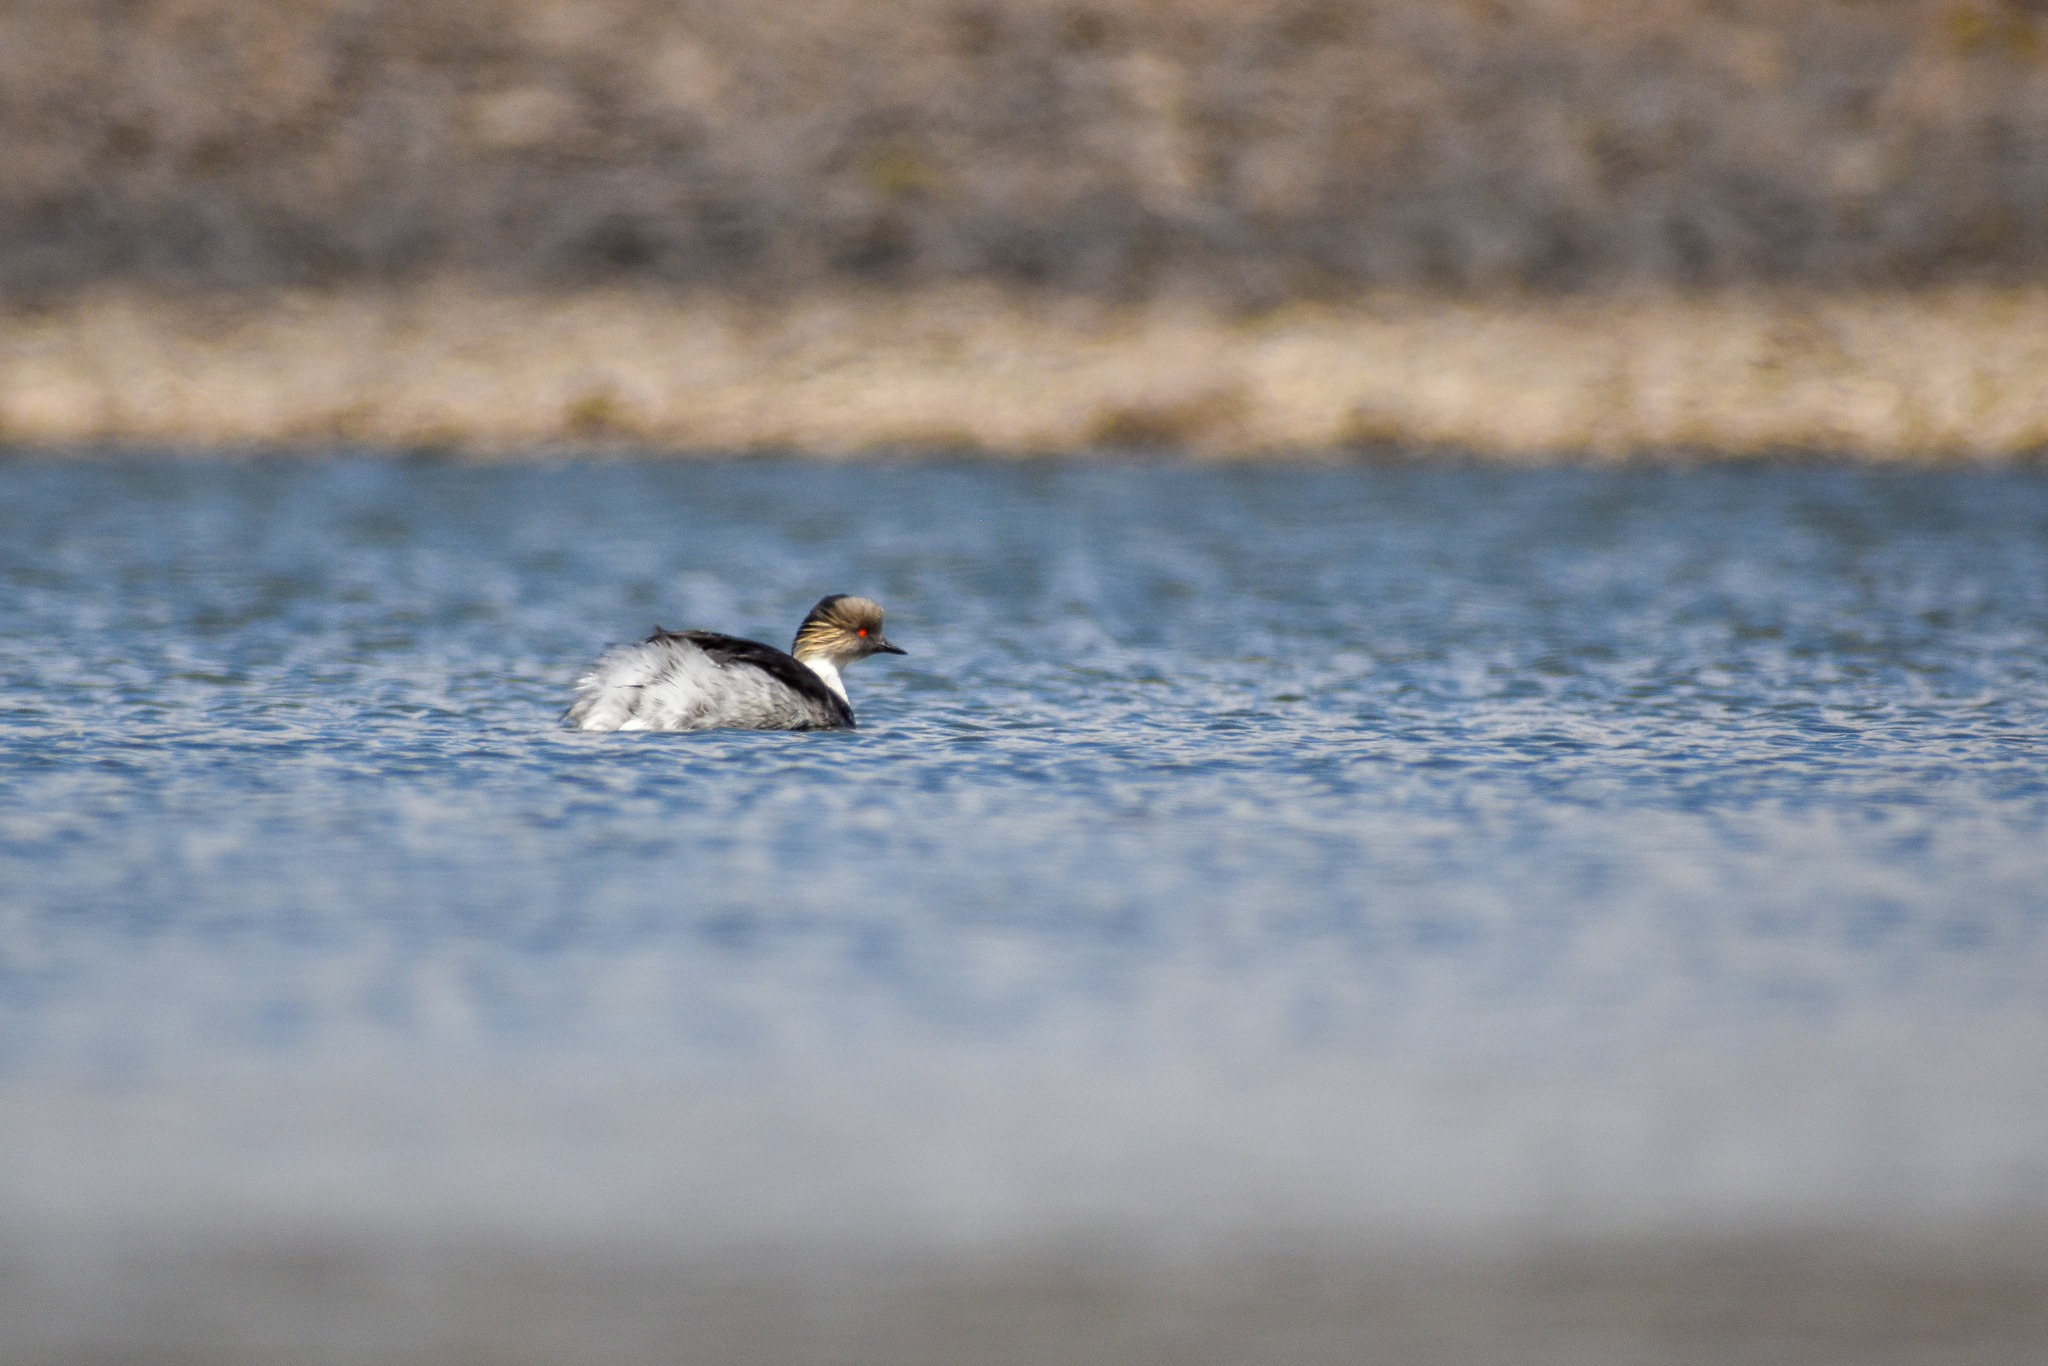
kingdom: Animalia
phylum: Chordata
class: Aves
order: Podicipediformes
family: Podicipedidae
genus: Podiceps
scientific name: Podiceps occipitalis
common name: Silvery grebe
